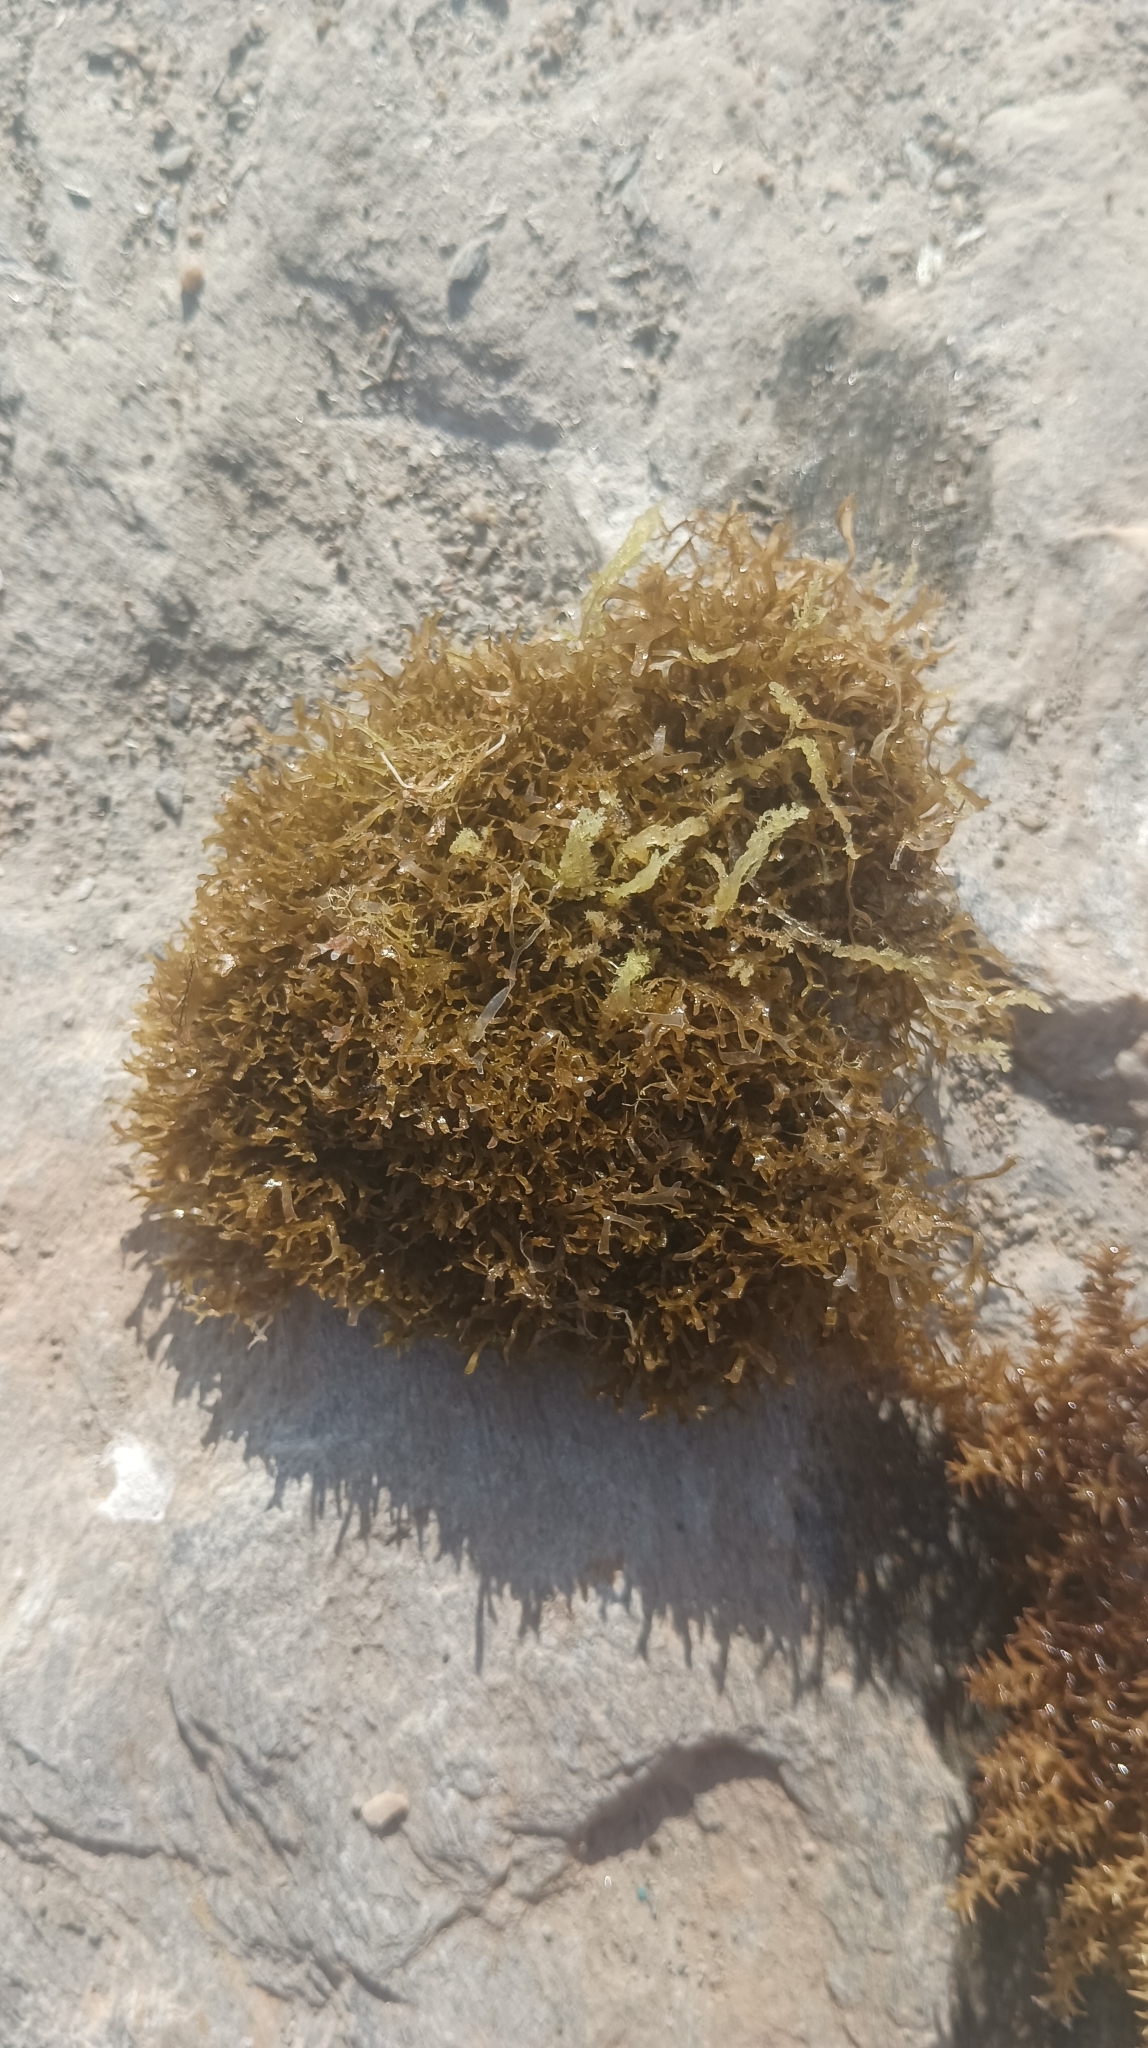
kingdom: Chromista
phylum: Ochrophyta
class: Phaeophyceae
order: Dictyotales
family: Dictyotaceae
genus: Rugulopteryx
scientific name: Rugulopteryx okamurae
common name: Algae stomp
